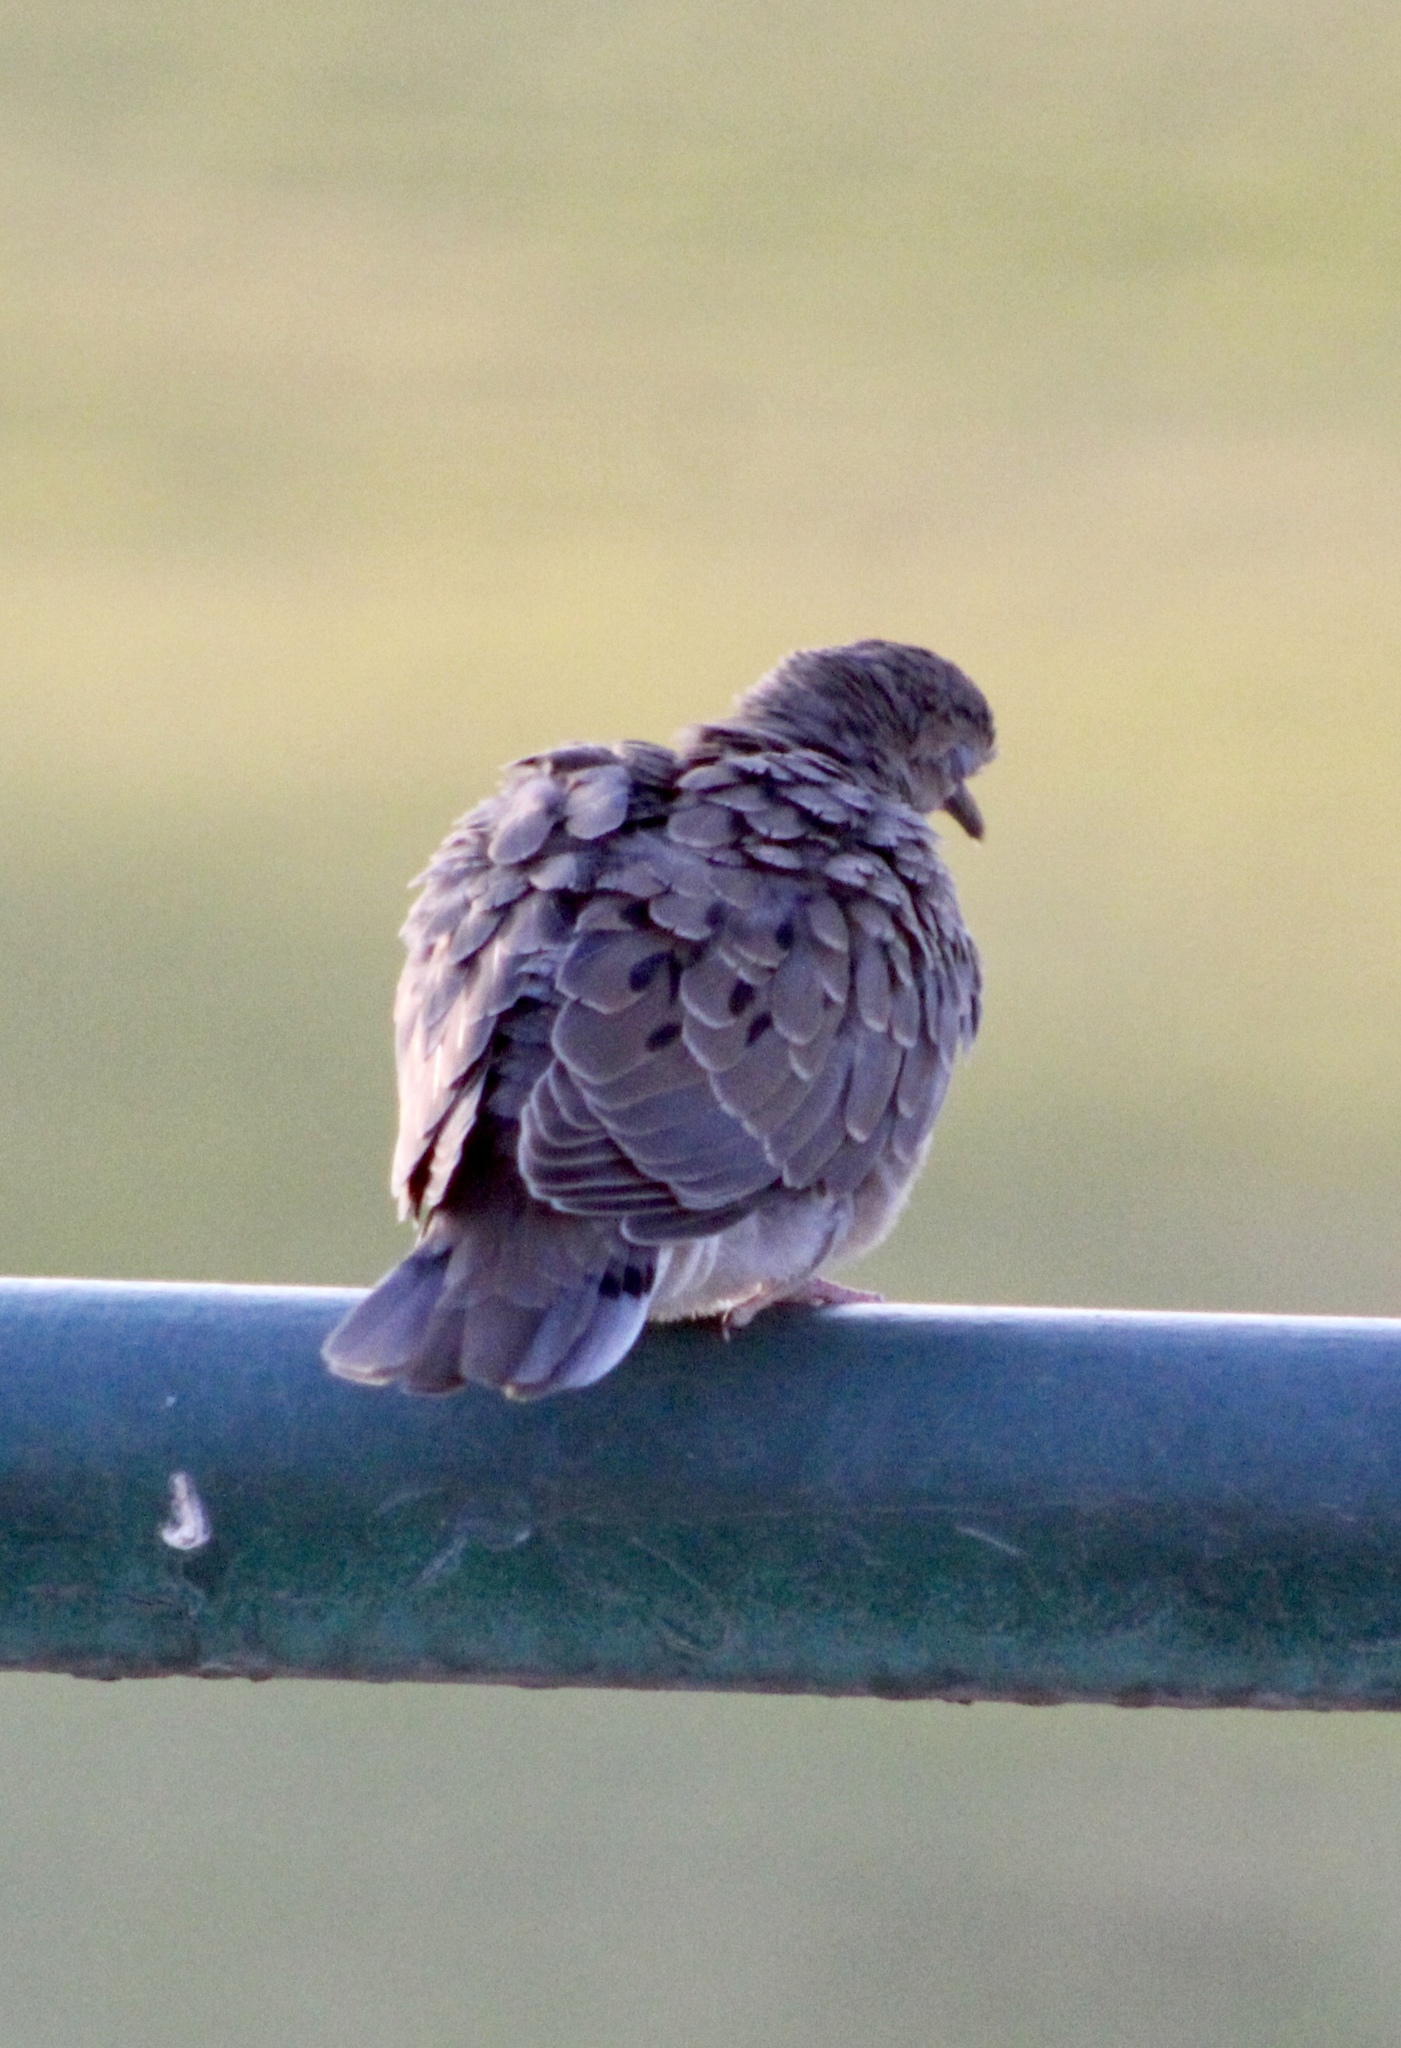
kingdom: Animalia
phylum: Chordata
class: Aves
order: Columbiformes
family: Columbidae
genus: Columbina
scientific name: Columbina passerina
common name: Common ground-dove
